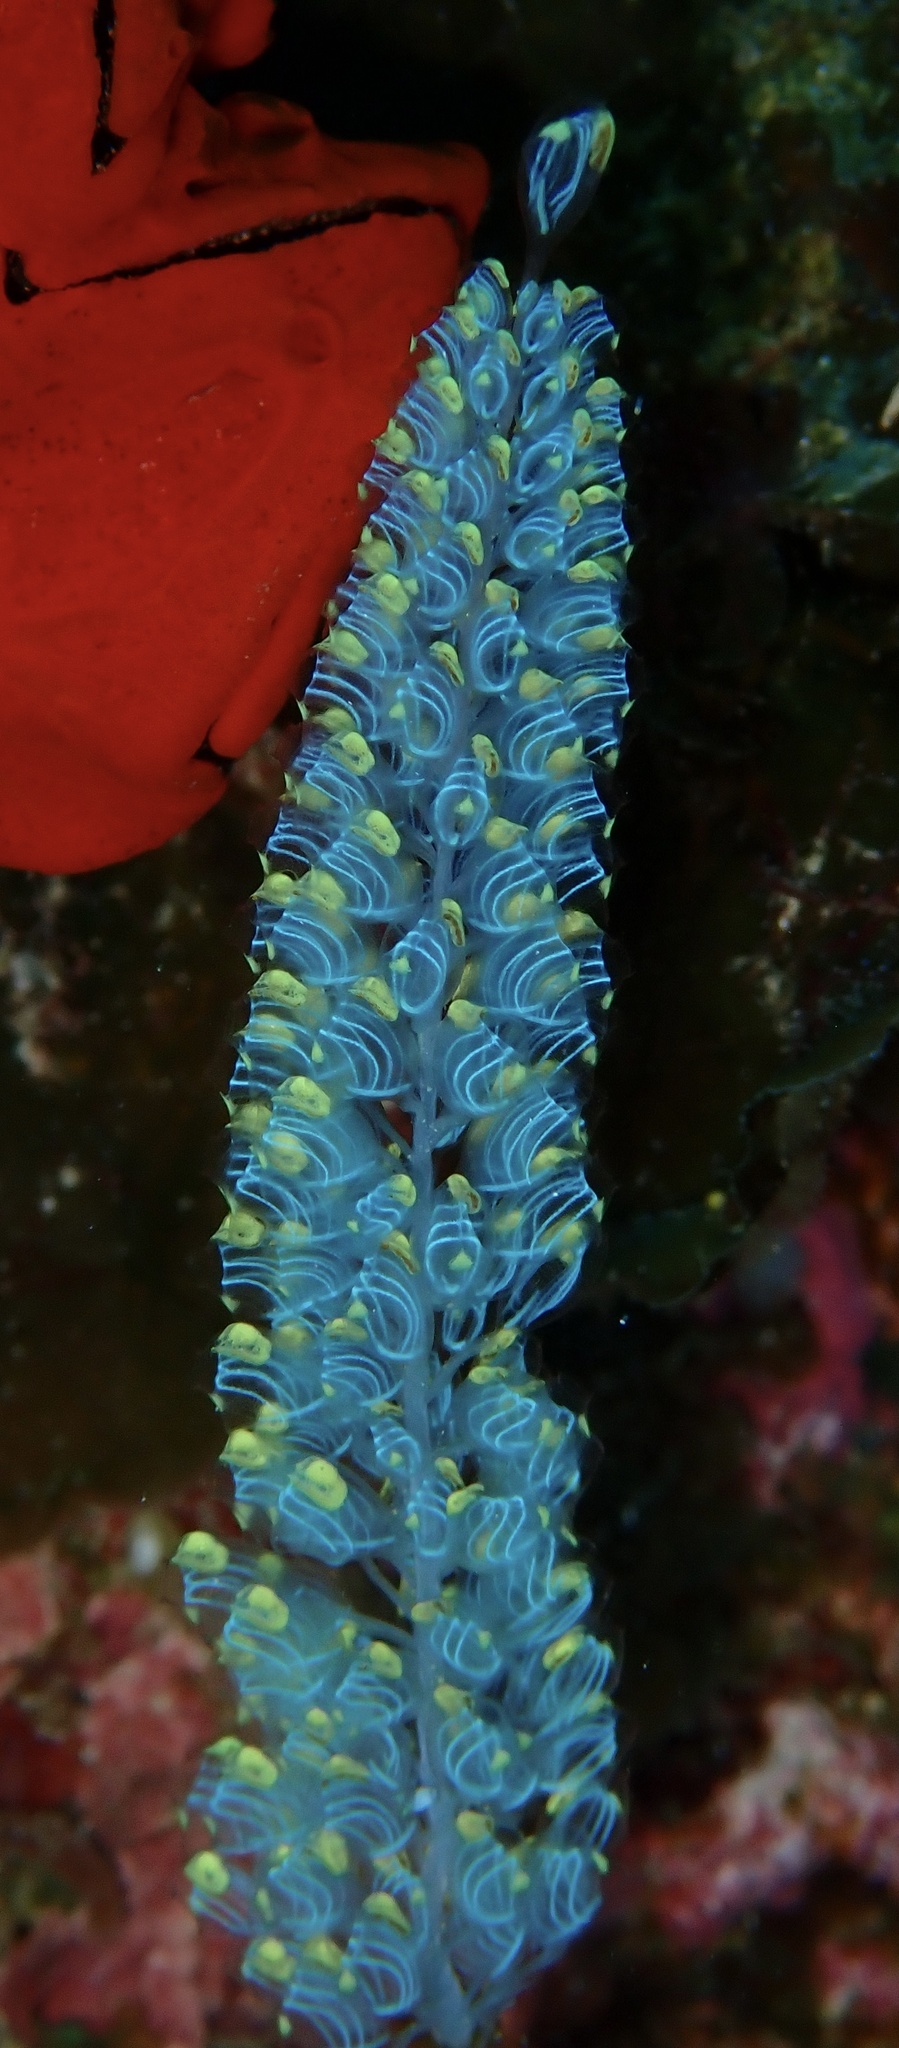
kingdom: Animalia
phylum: Chordata
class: Ascidiacea
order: Phlebobranchia
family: Perophoridae
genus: Perophora
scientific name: Perophora namei
